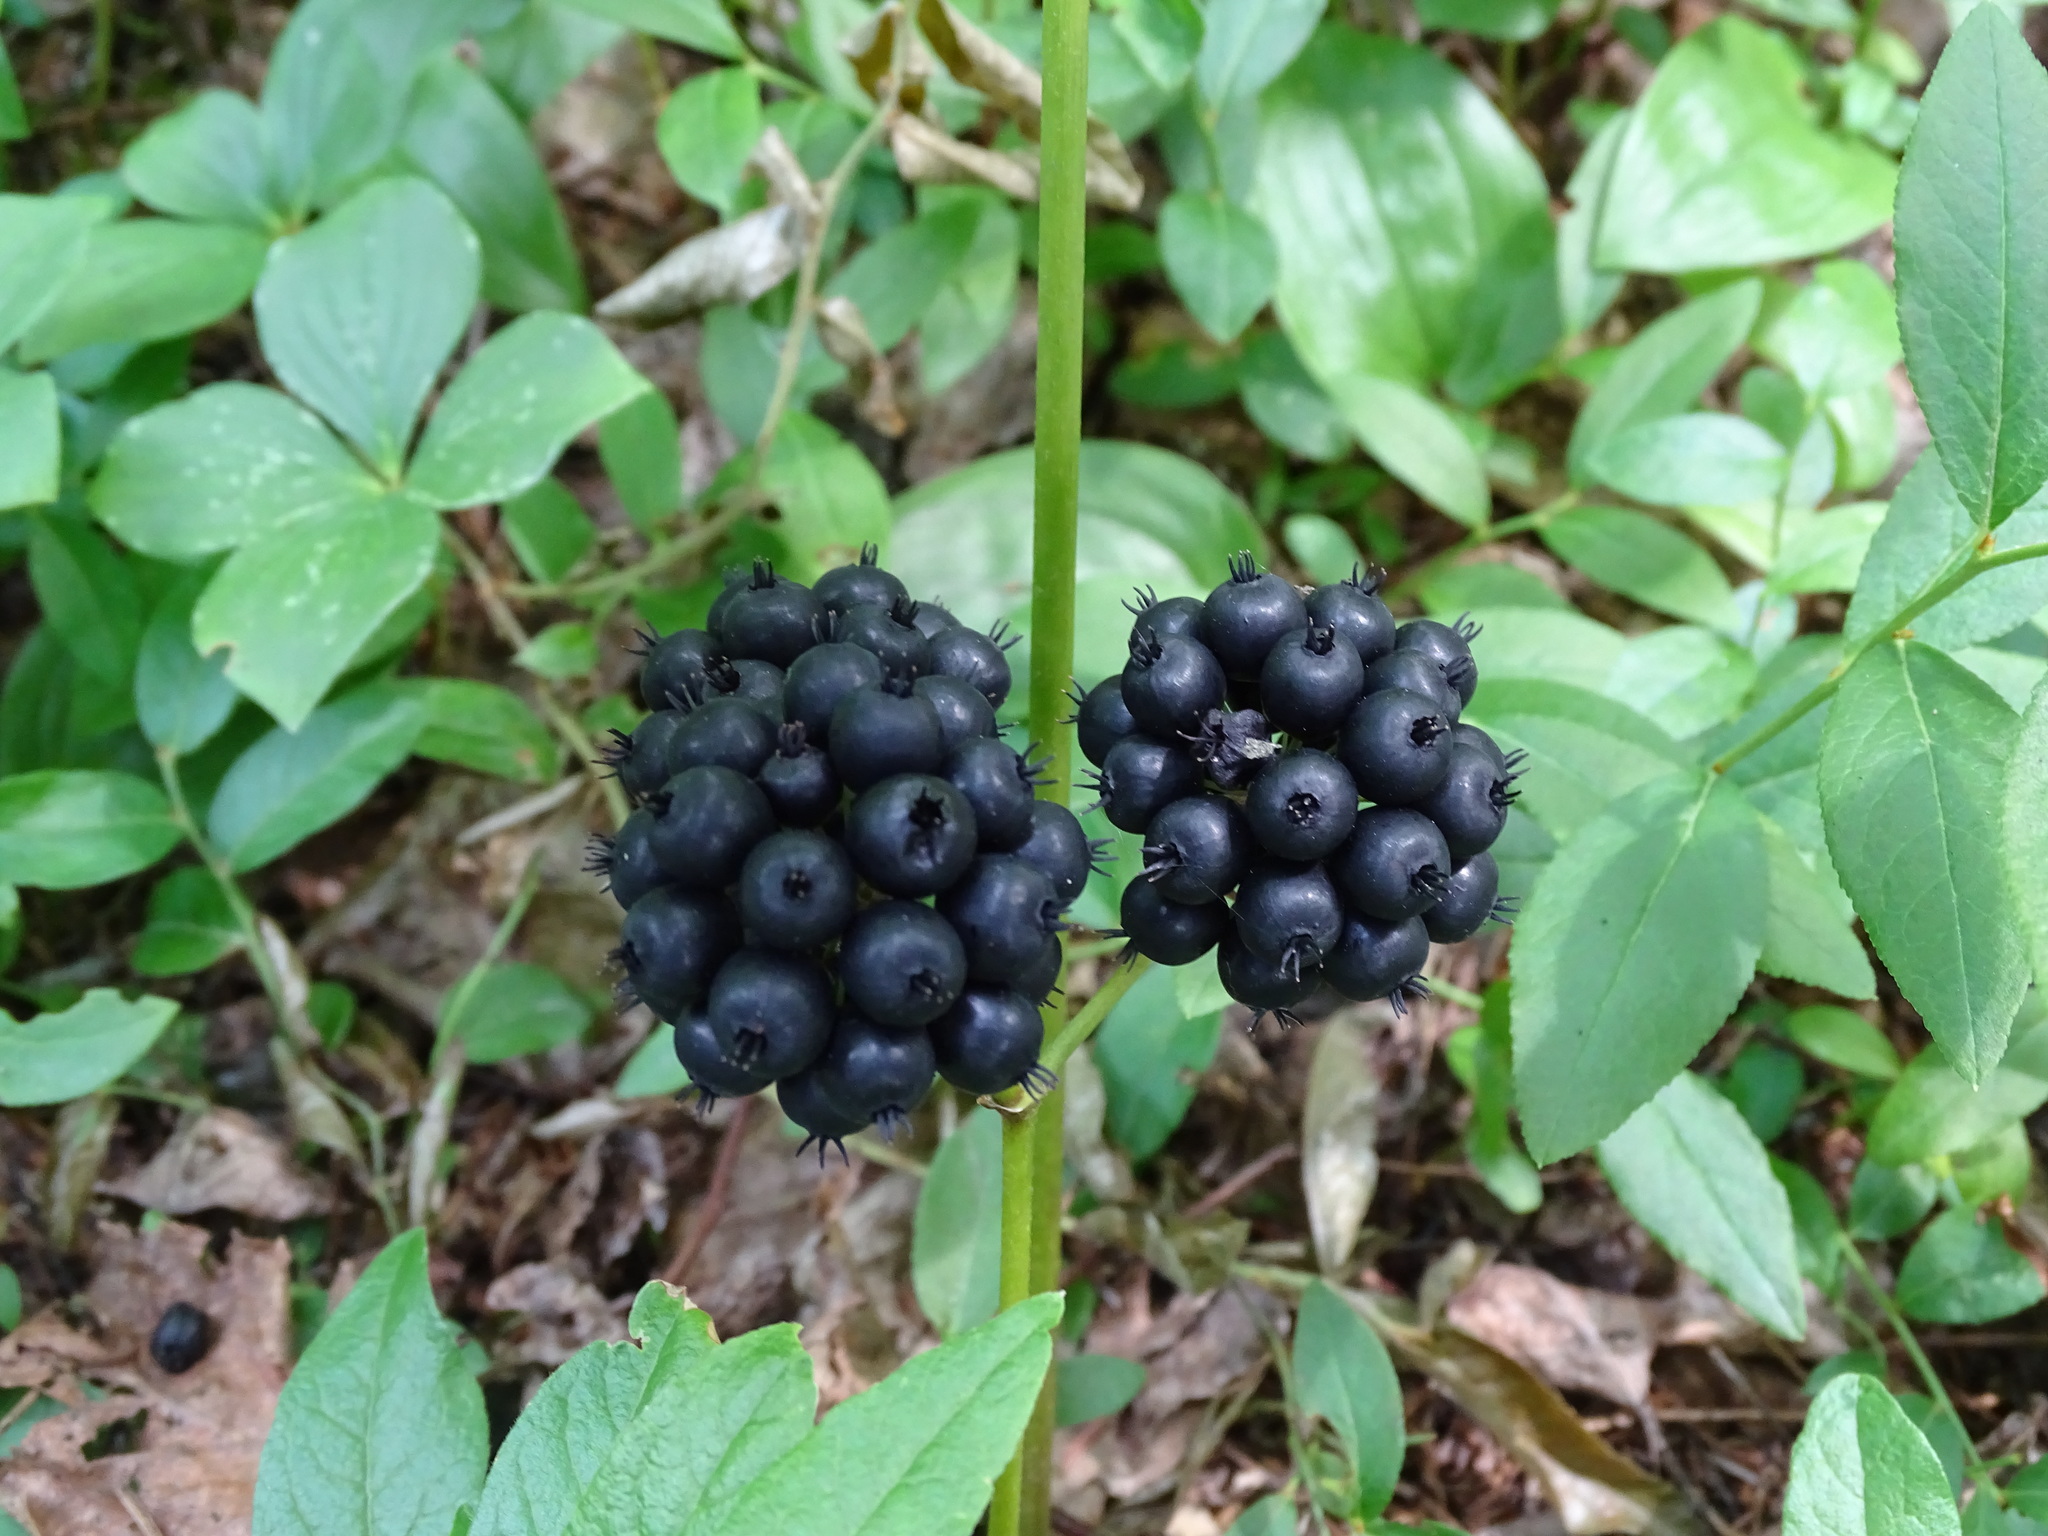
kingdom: Plantae
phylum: Tracheophyta
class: Magnoliopsida
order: Apiales
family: Araliaceae
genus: Aralia
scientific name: Aralia nudicaulis
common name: Wild sarsaparilla
